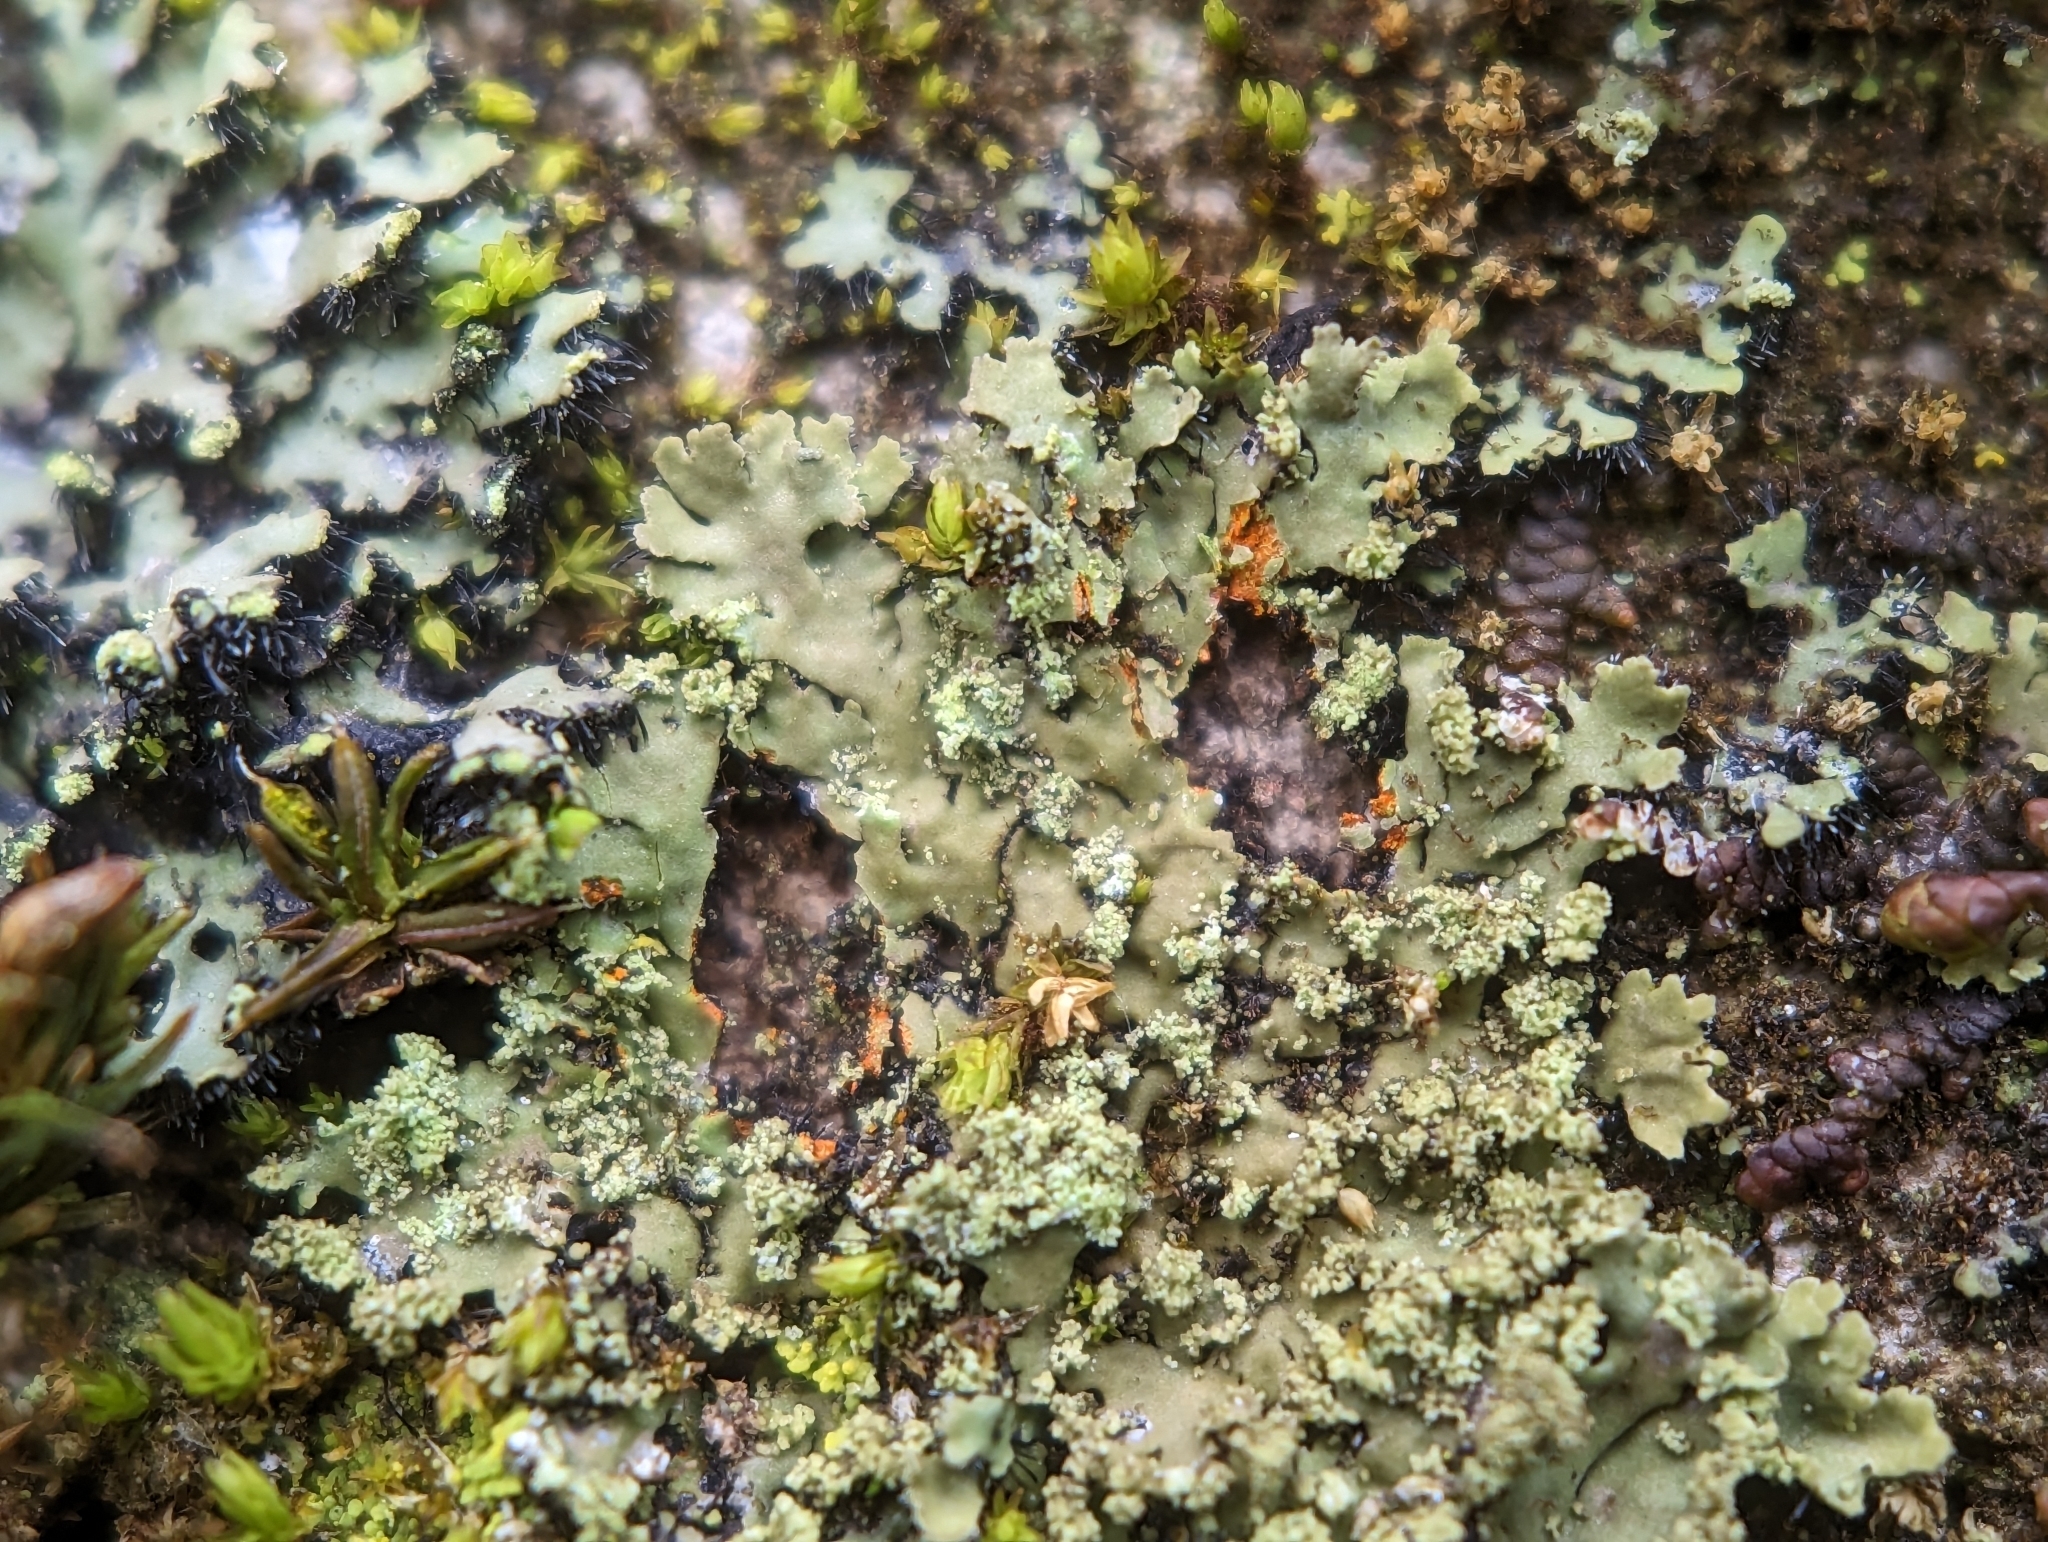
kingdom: Fungi
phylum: Ascomycota
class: Lecanoromycetes
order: Caliciales
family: Physciaceae
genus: Phaeophyscia
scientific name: Phaeophyscia endophoenicea
